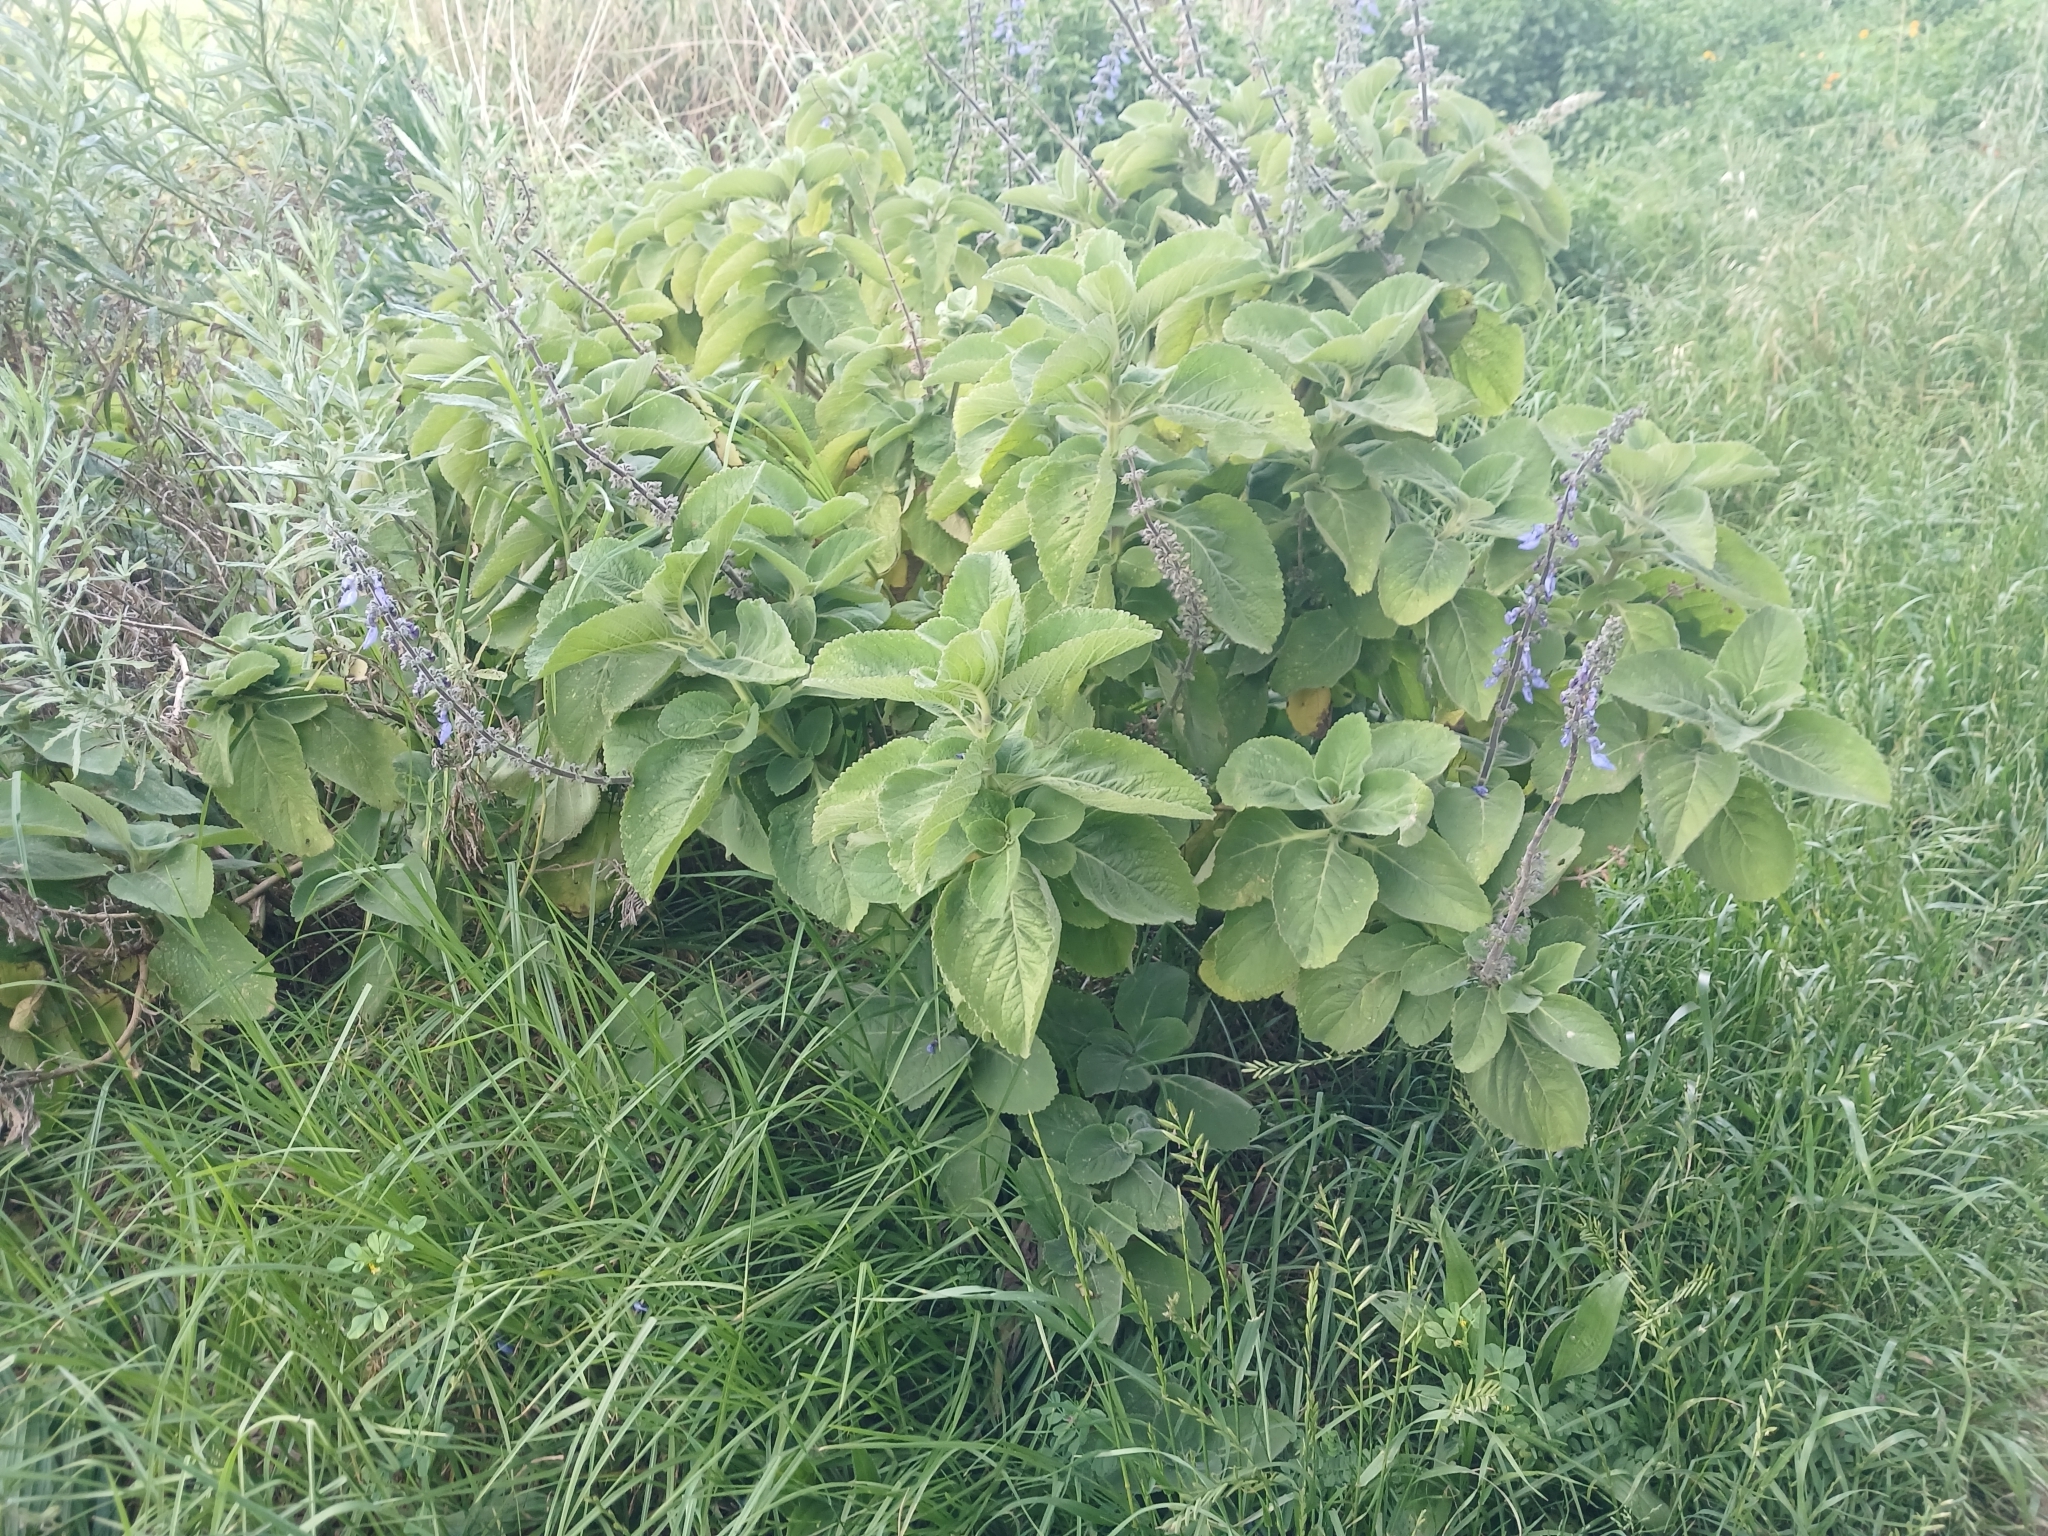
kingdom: Plantae
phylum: Tracheophyta
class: Magnoliopsida
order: Lamiales
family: Lamiaceae
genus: Coleus
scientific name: Coleus barbatus
